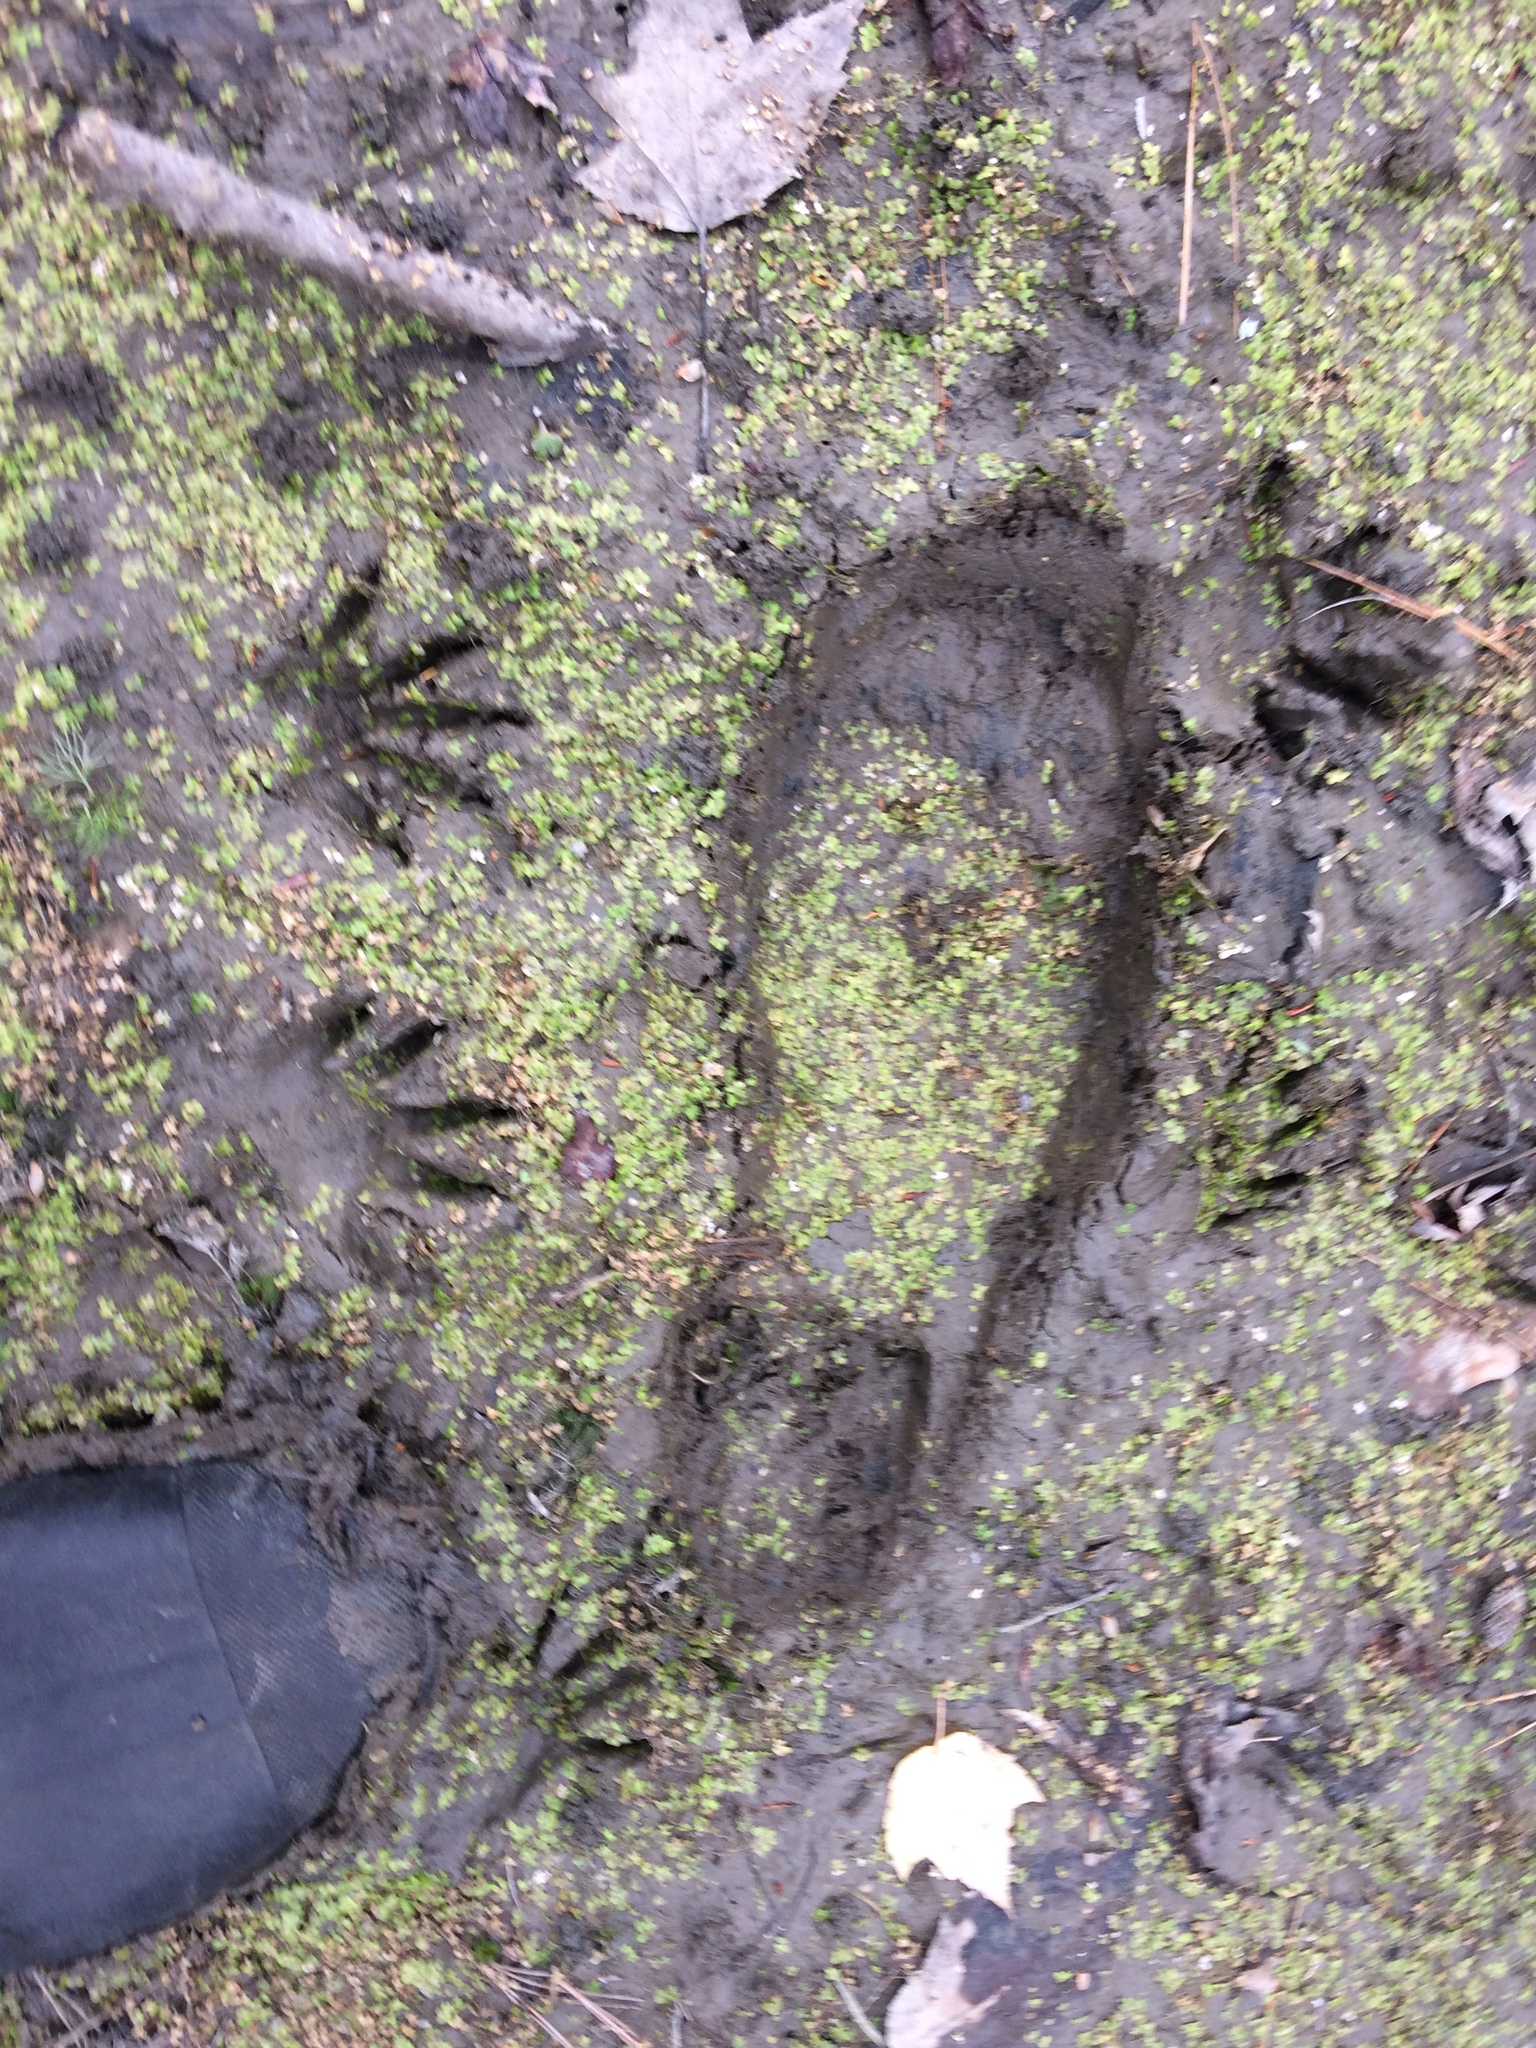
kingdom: Animalia
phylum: Chordata
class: Mammalia
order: Carnivora
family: Procyonidae
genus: Procyon
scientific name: Procyon lotor
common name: Raccoon
